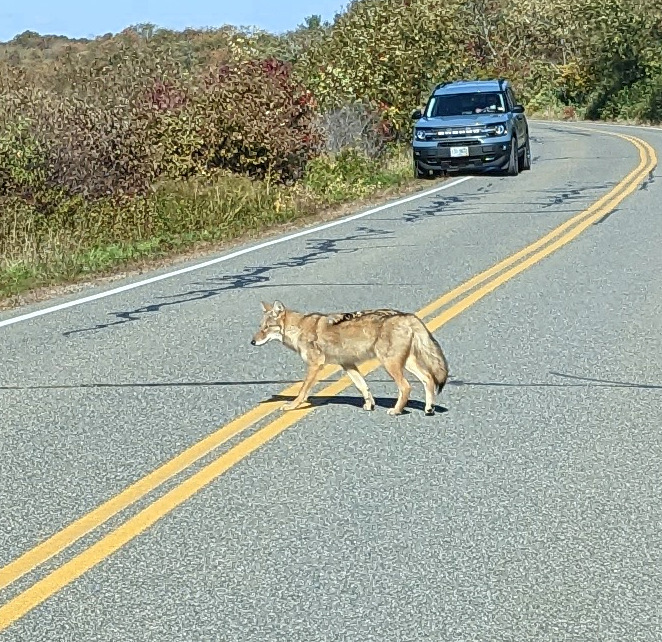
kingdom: Animalia
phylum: Chordata
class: Mammalia
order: Carnivora
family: Canidae
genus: Canis
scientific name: Canis latrans
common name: Coyote
